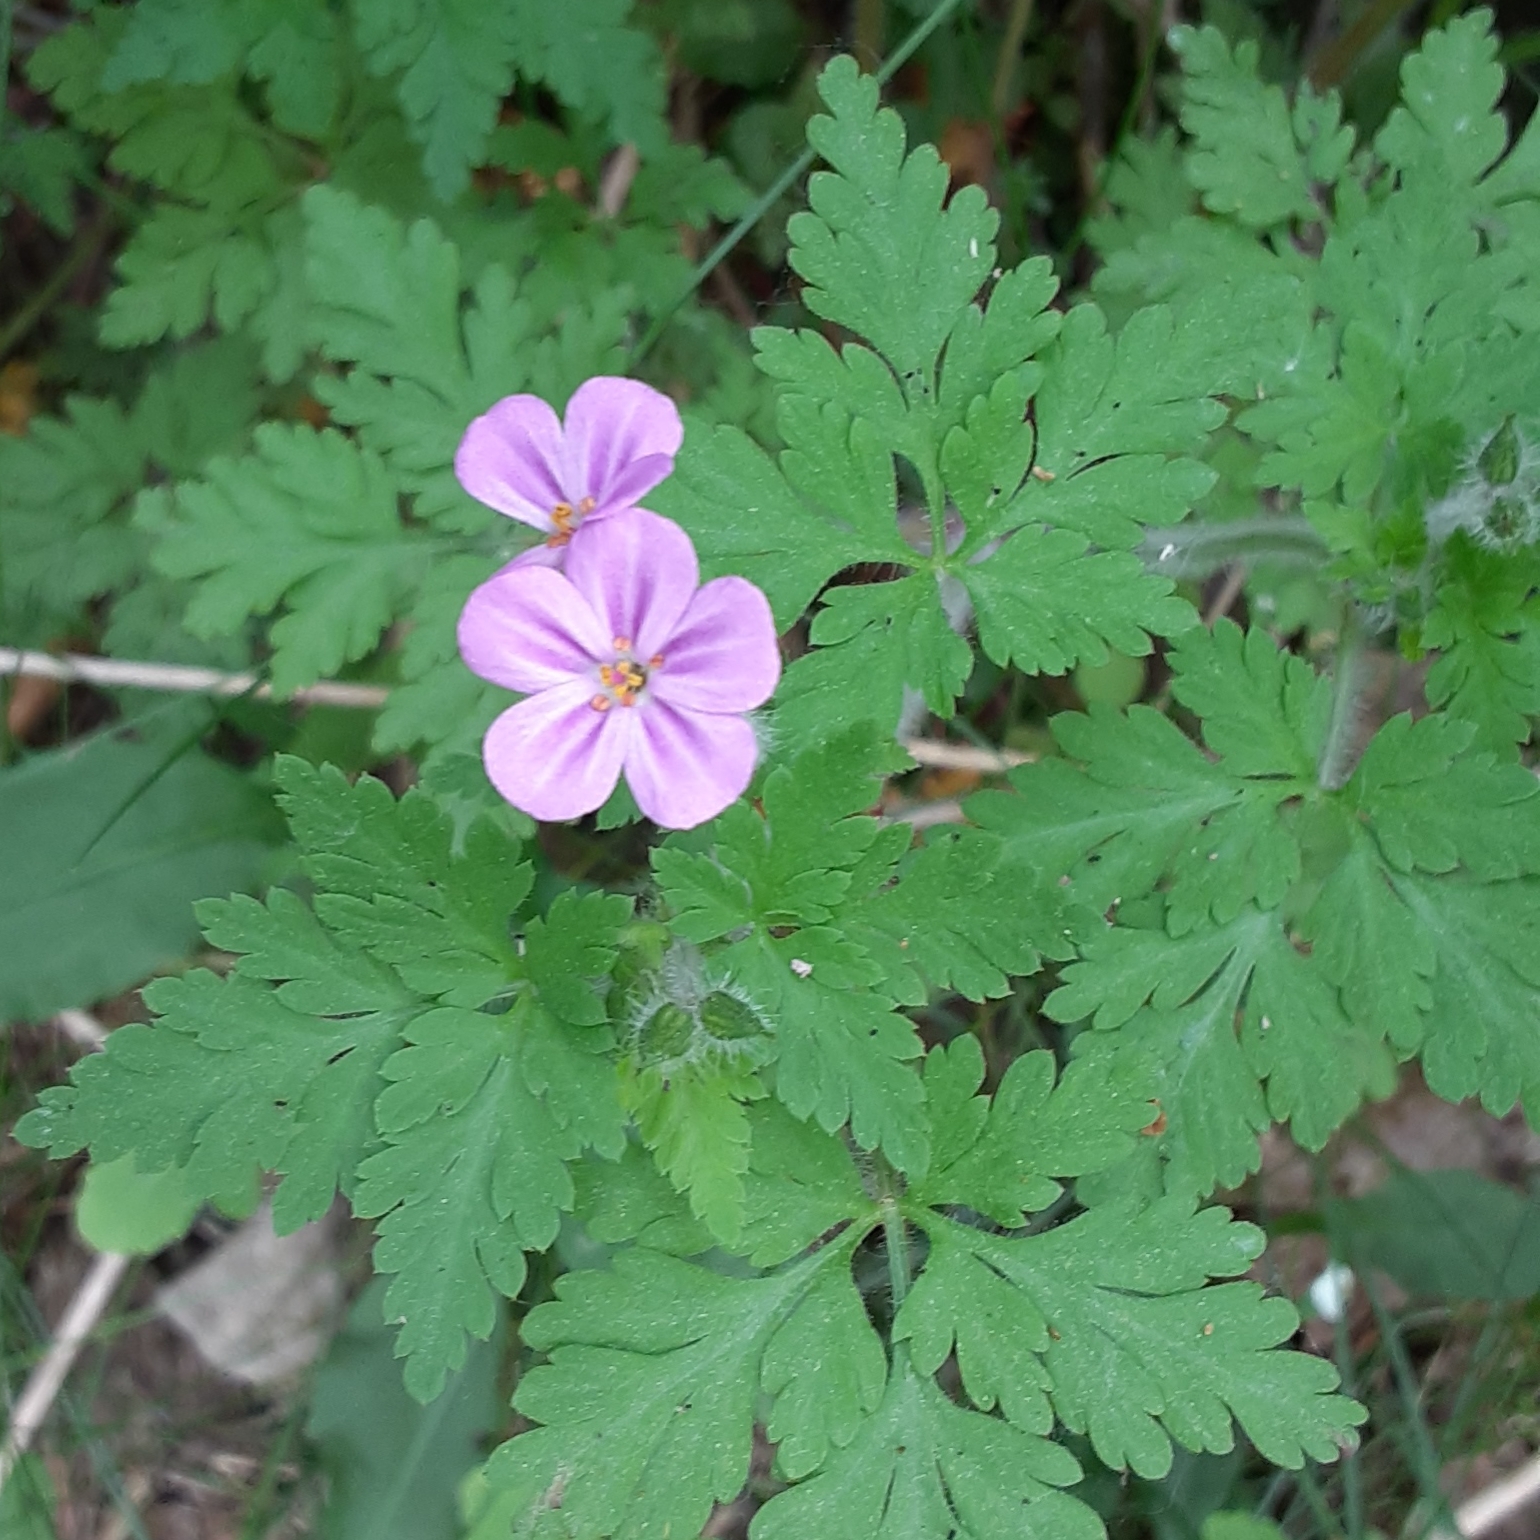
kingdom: Plantae
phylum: Tracheophyta
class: Magnoliopsida
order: Geraniales
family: Geraniaceae
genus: Geranium
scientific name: Geranium robertianum
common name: Herb-robert
